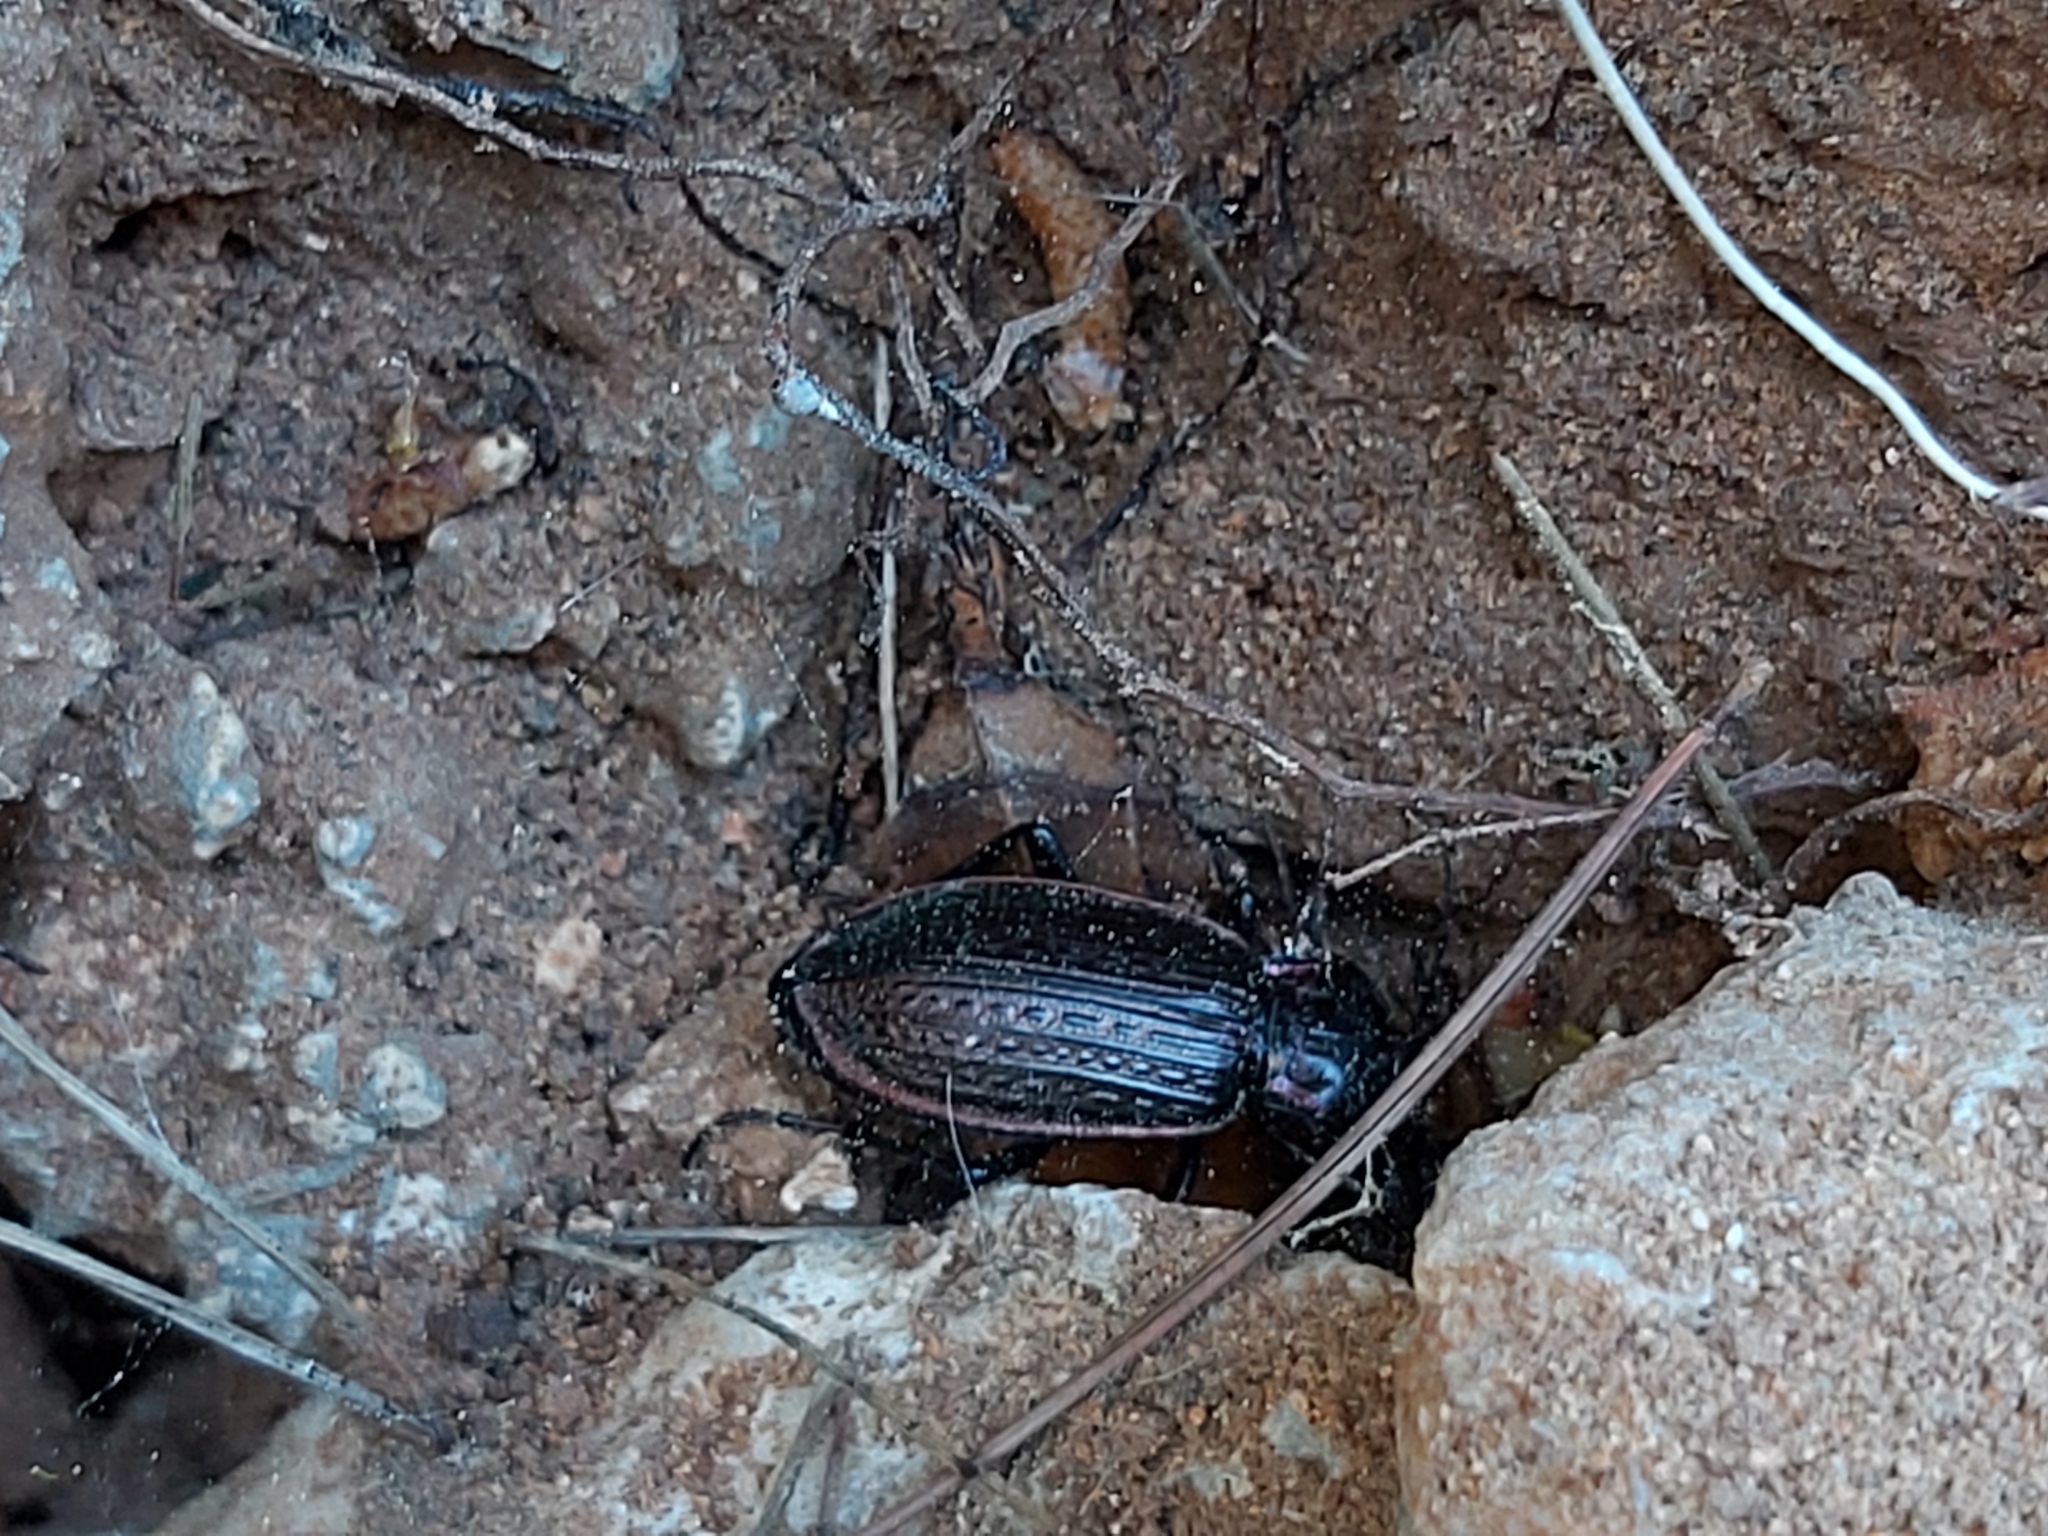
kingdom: Animalia
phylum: Arthropoda
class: Insecta
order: Coleoptera
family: Carabidae
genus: Carabus
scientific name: Carabus morbillosus
